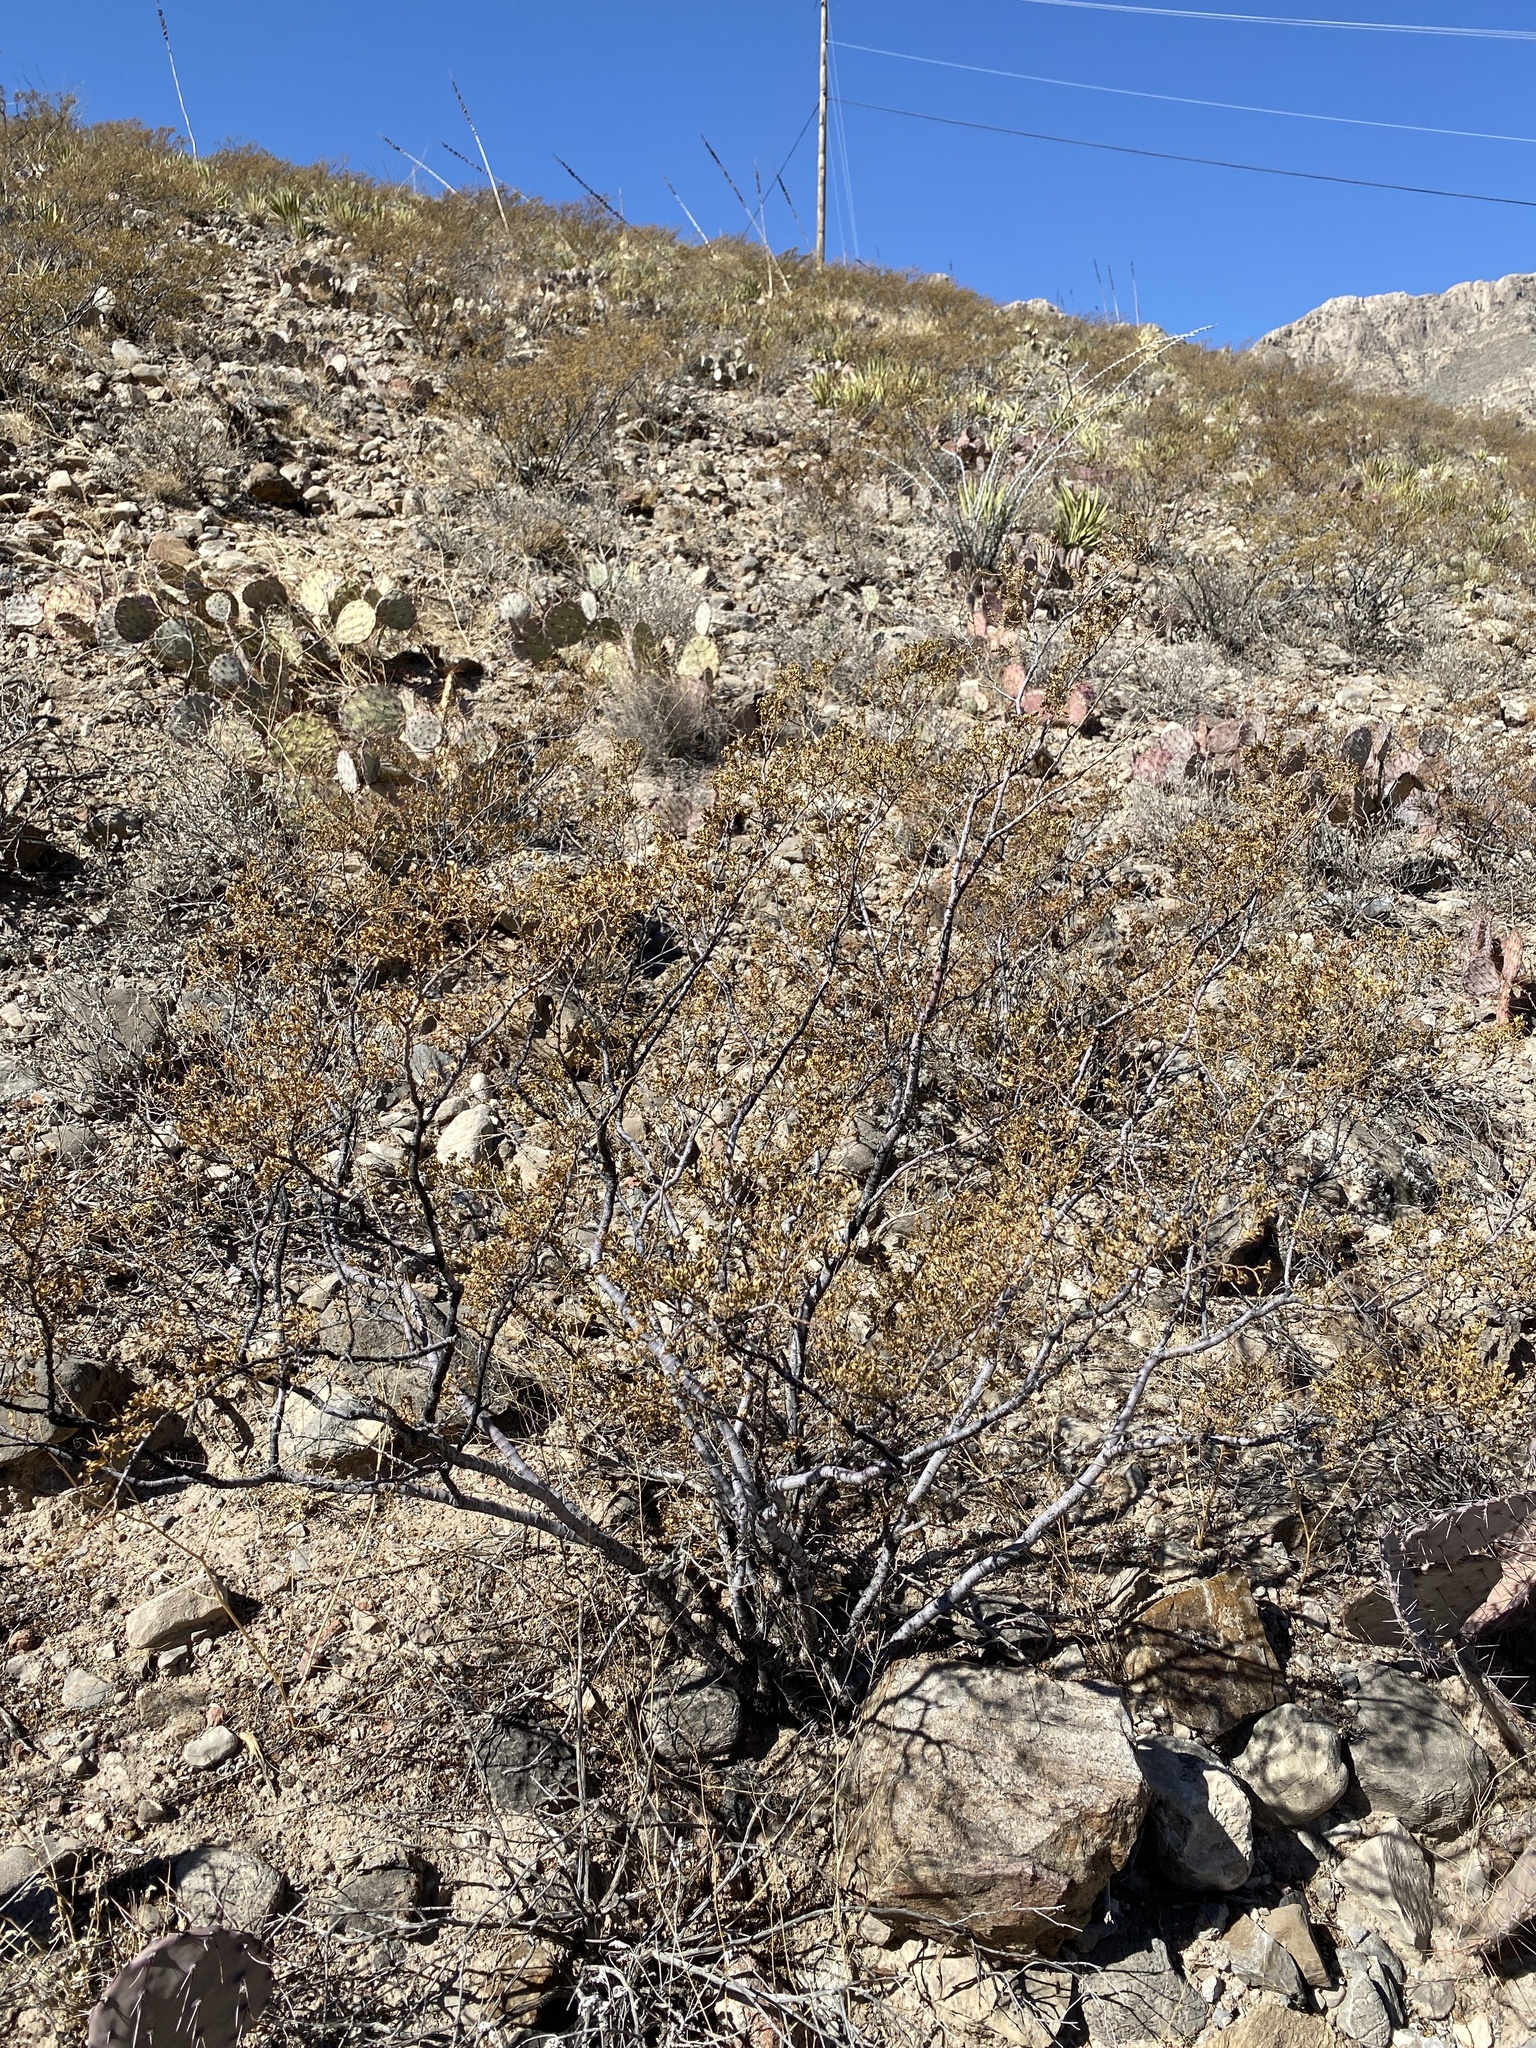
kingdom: Plantae
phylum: Tracheophyta
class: Magnoliopsida
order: Zygophyllales
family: Zygophyllaceae
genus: Larrea
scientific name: Larrea tridentata
